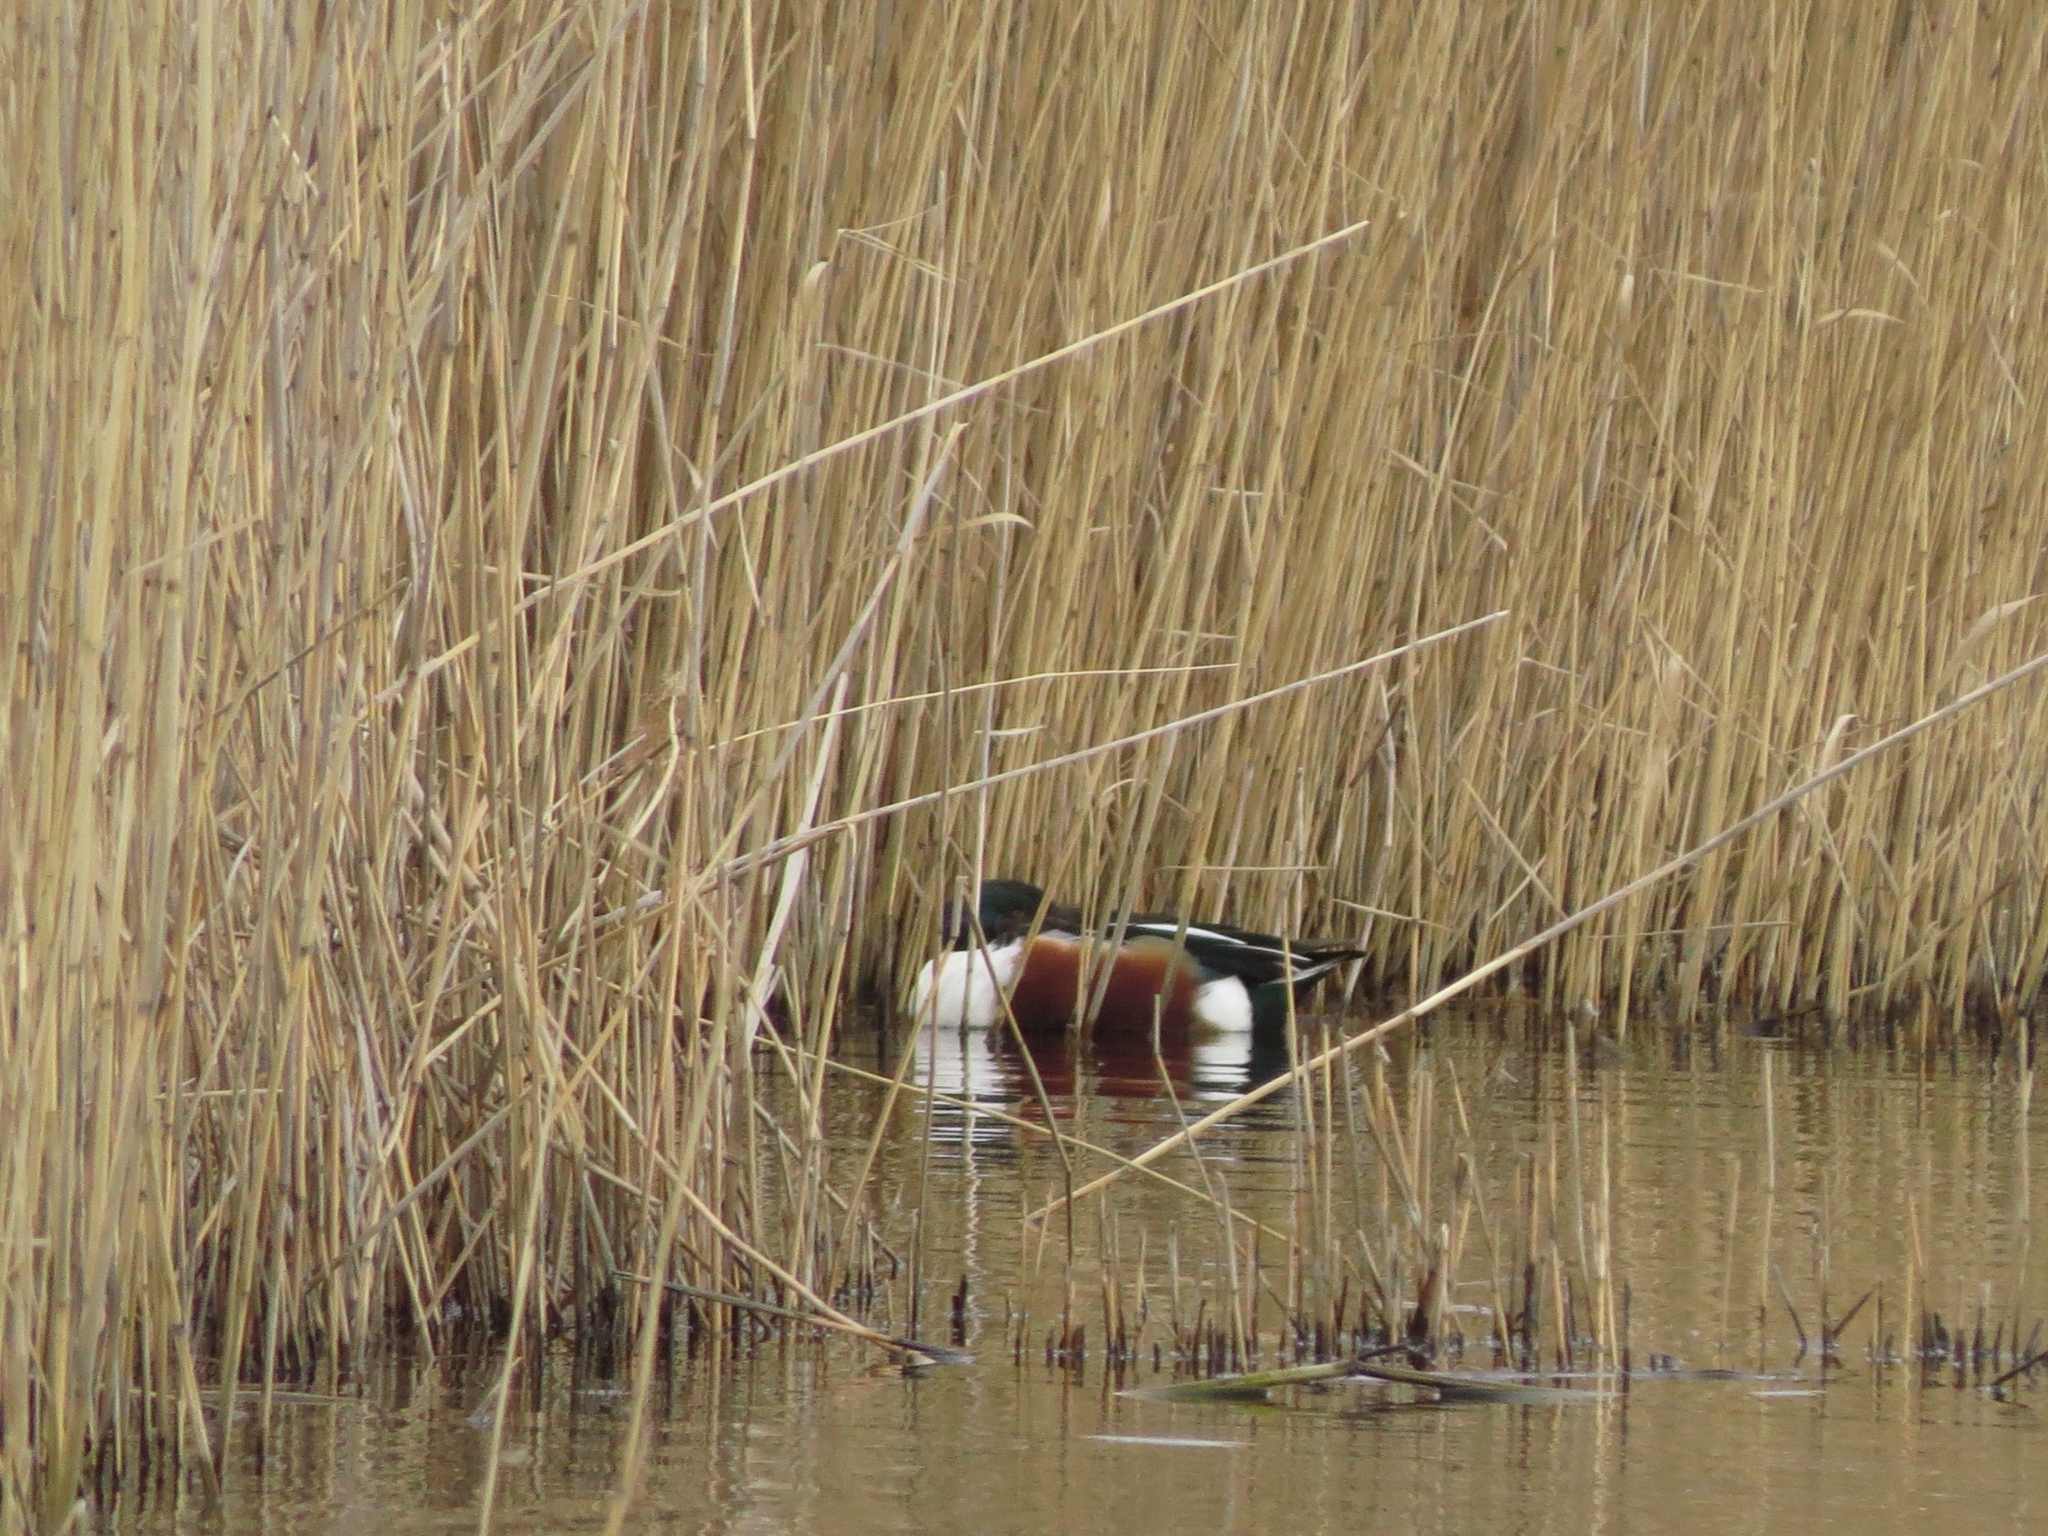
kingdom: Animalia
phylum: Chordata
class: Aves
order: Anseriformes
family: Anatidae
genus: Spatula
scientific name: Spatula clypeata
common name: Northern shoveler
